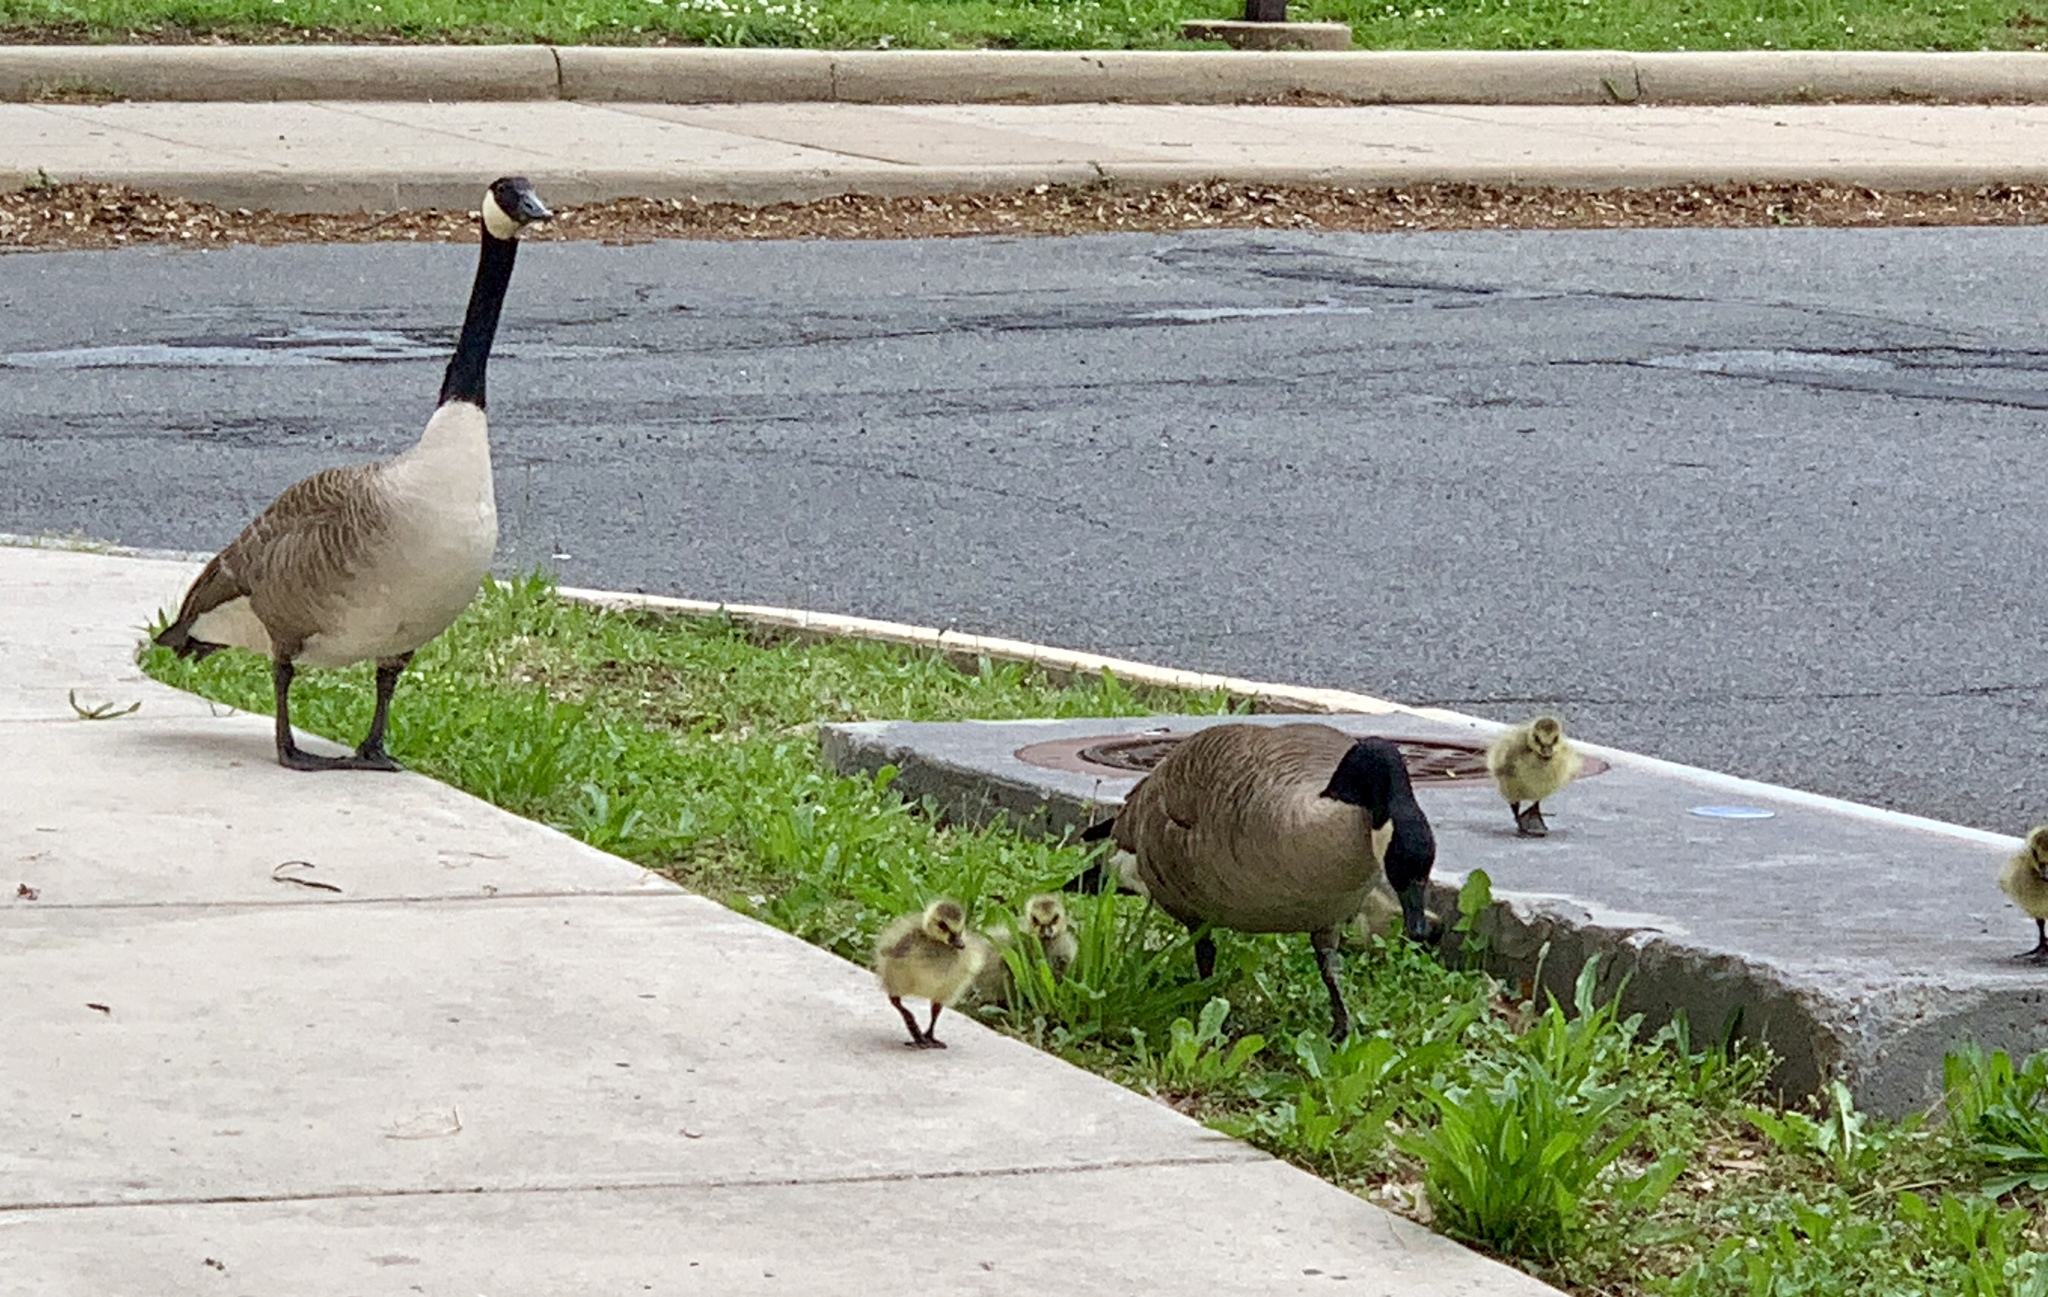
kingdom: Animalia
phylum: Chordata
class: Aves
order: Anseriformes
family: Anatidae
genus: Branta
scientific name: Branta canadensis
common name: Canada goose
